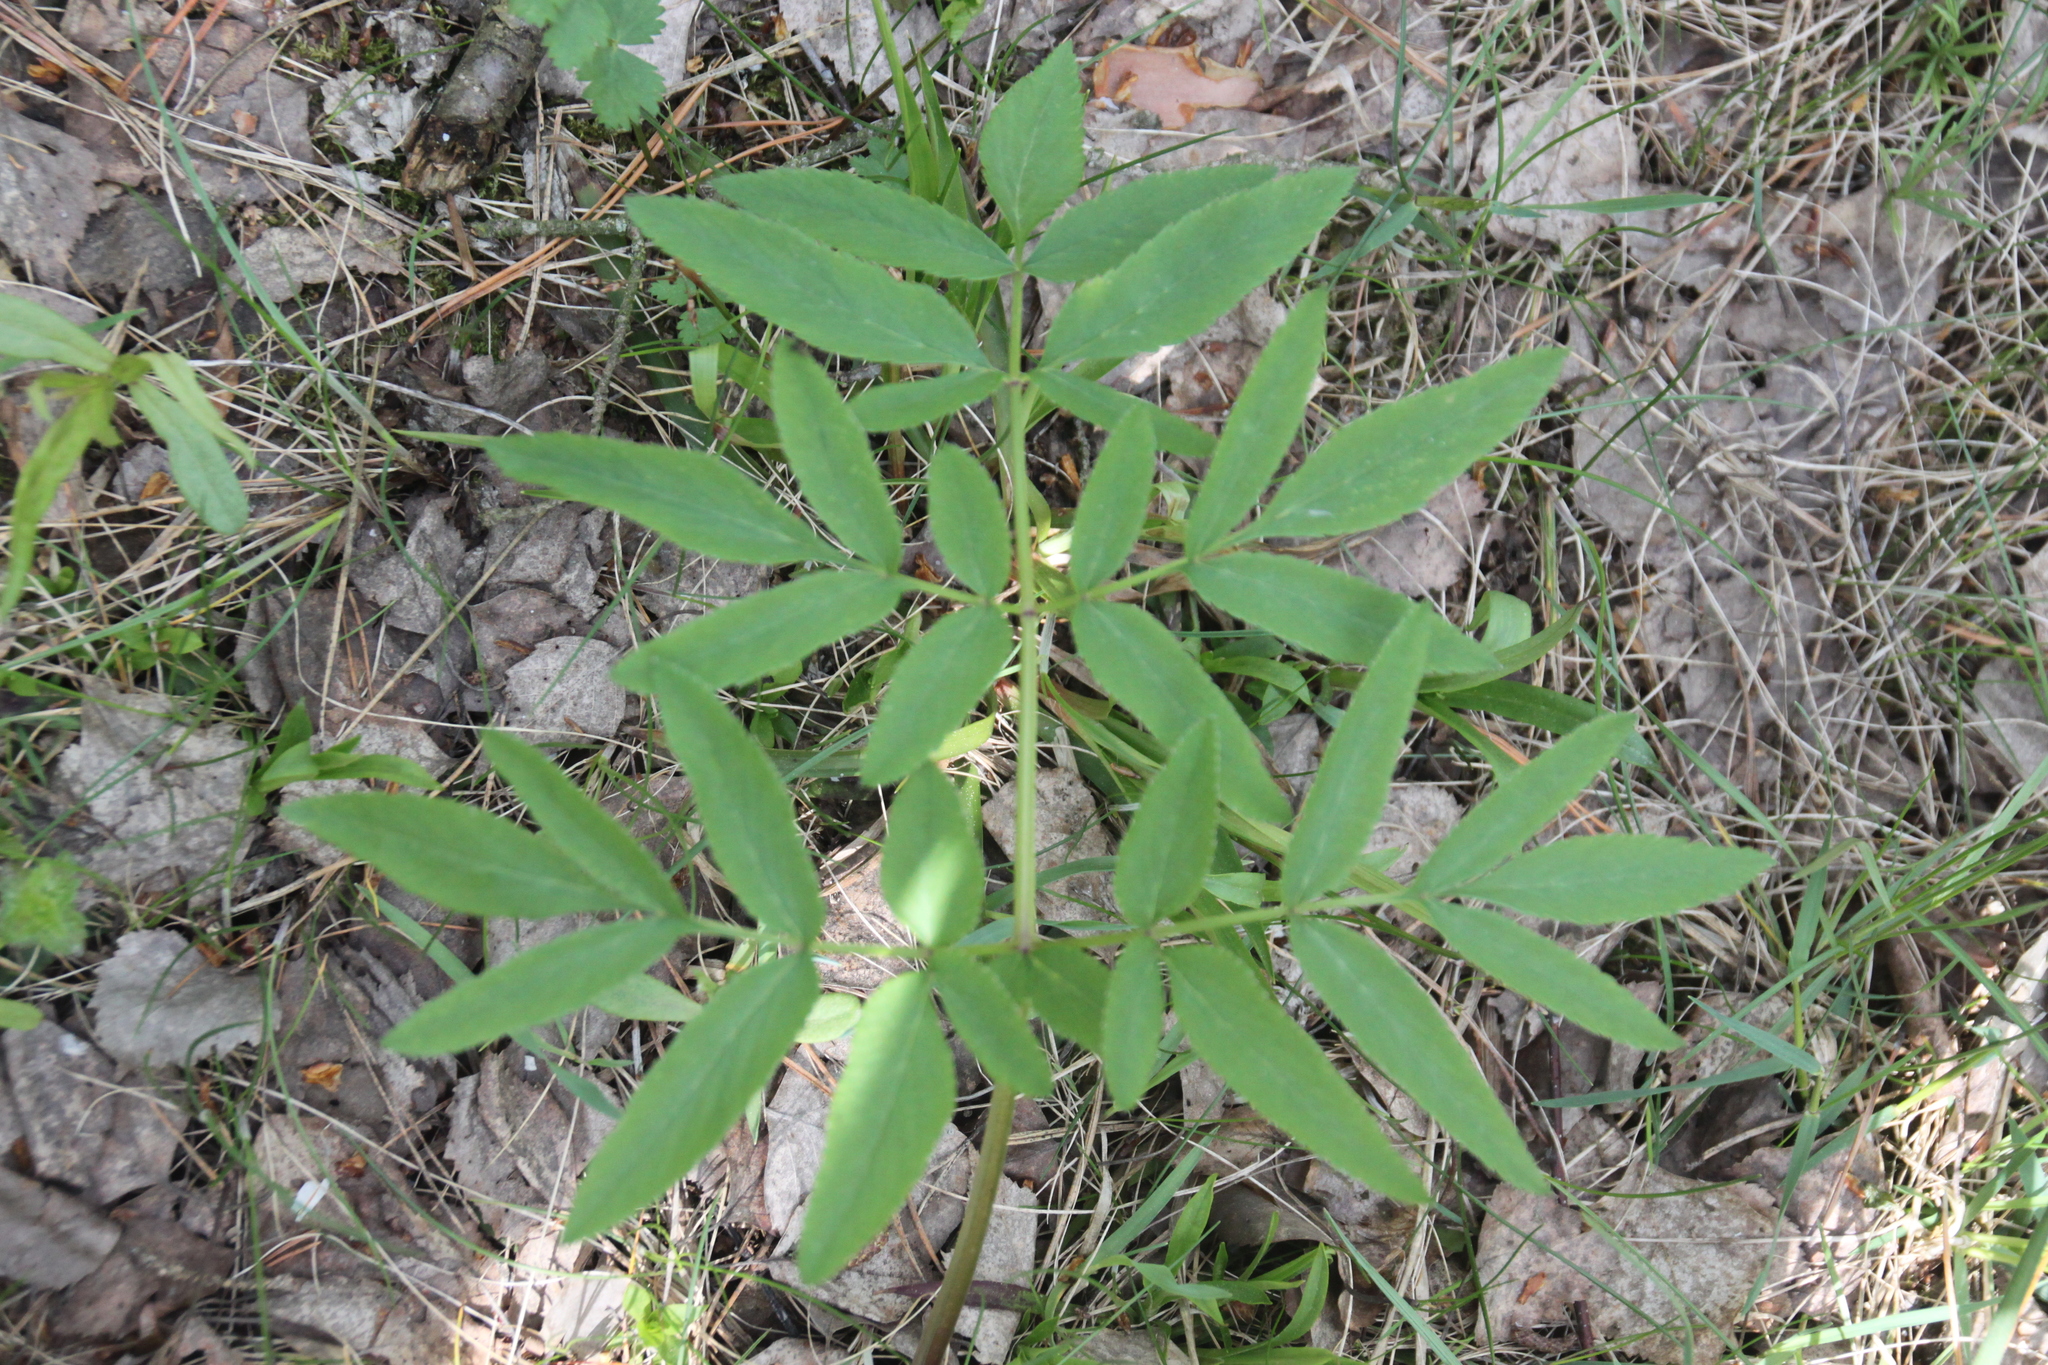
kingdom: Plantae
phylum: Tracheophyta
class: Magnoliopsida
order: Apiales
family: Apiaceae
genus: Angelica
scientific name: Angelica sylvestris
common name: Wild angelica
